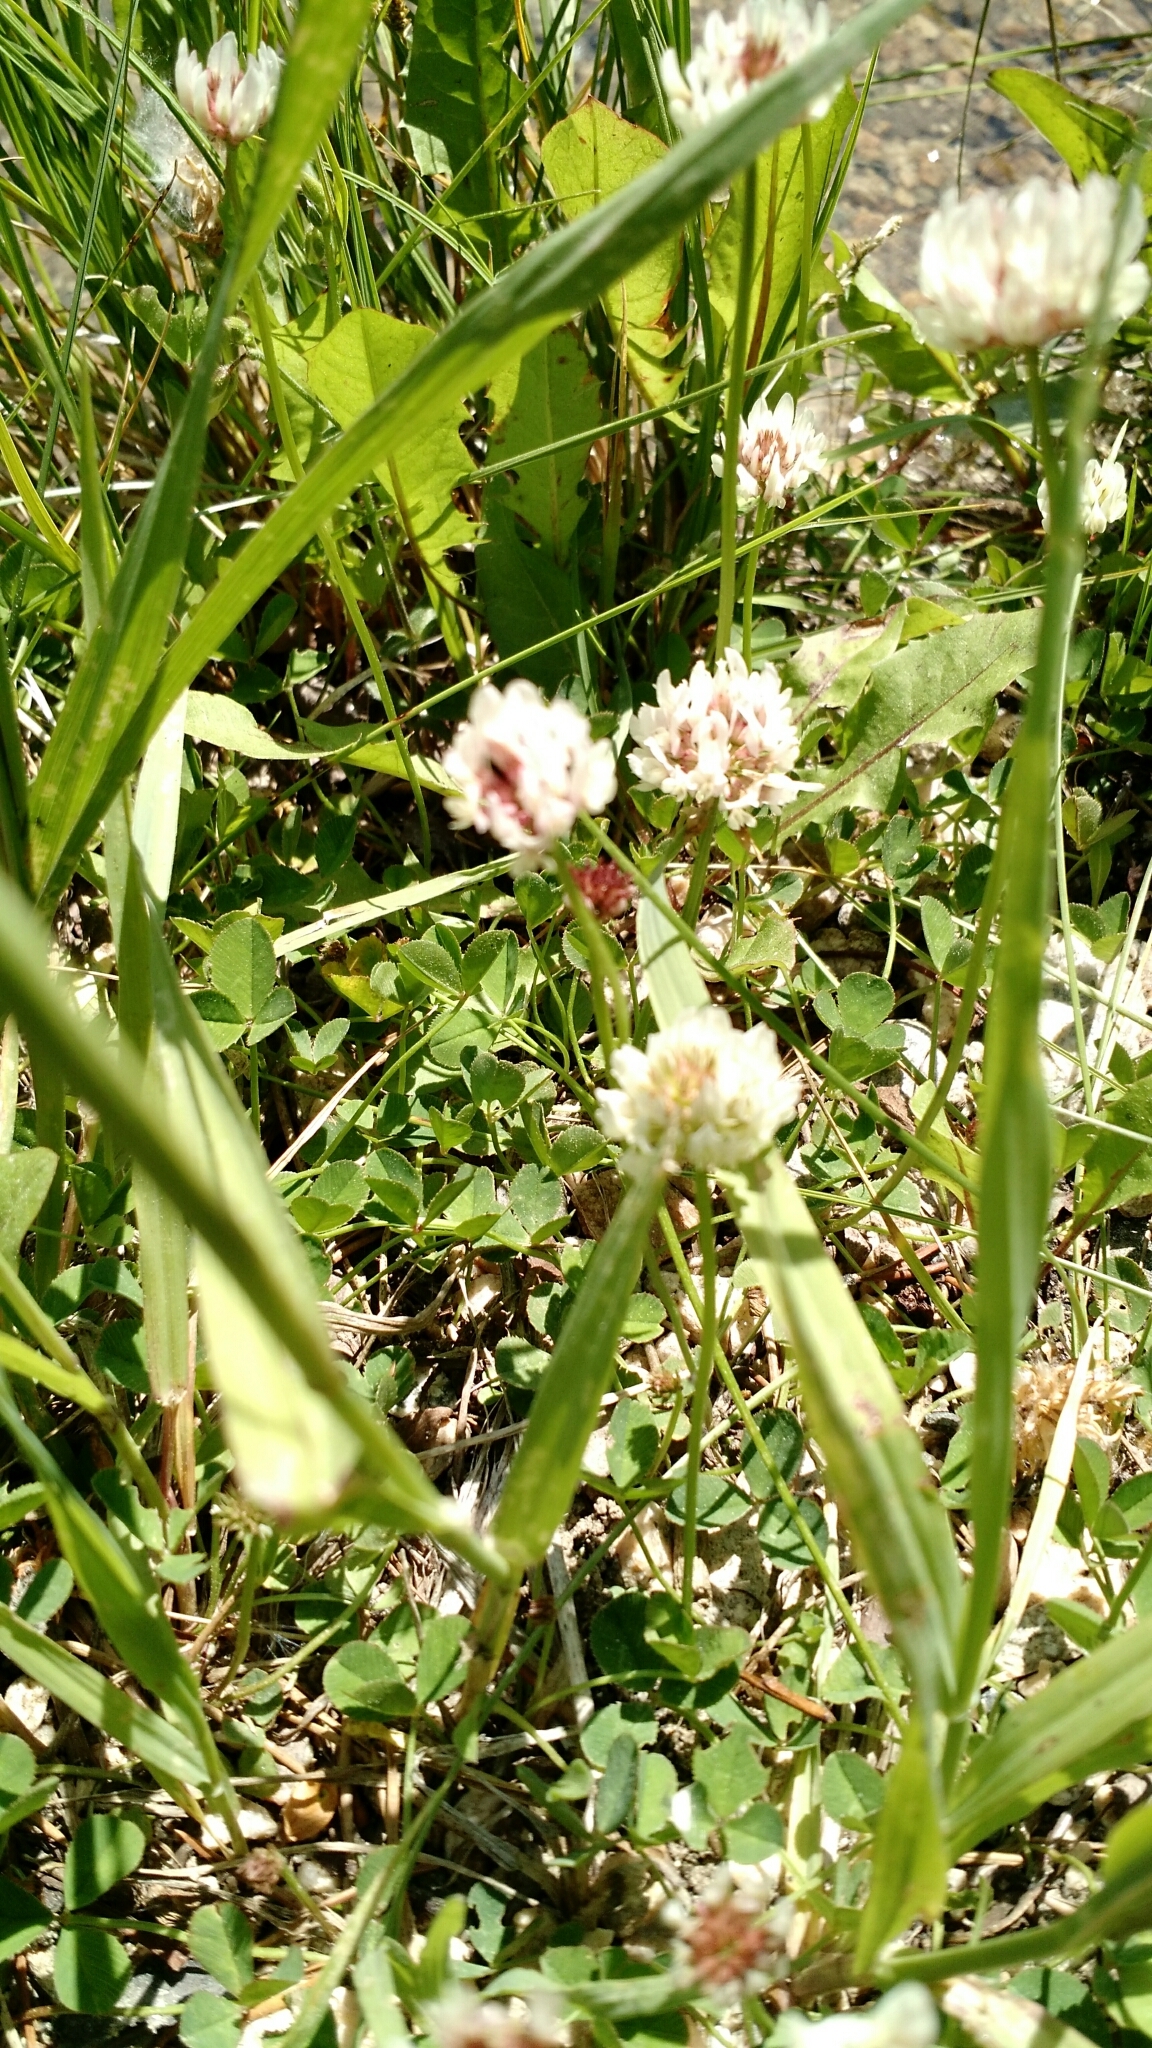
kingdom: Plantae
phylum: Tracheophyta
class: Magnoliopsida
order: Fabales
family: Fabaceae
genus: Trifolium
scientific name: Trifolium repens
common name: White clover
